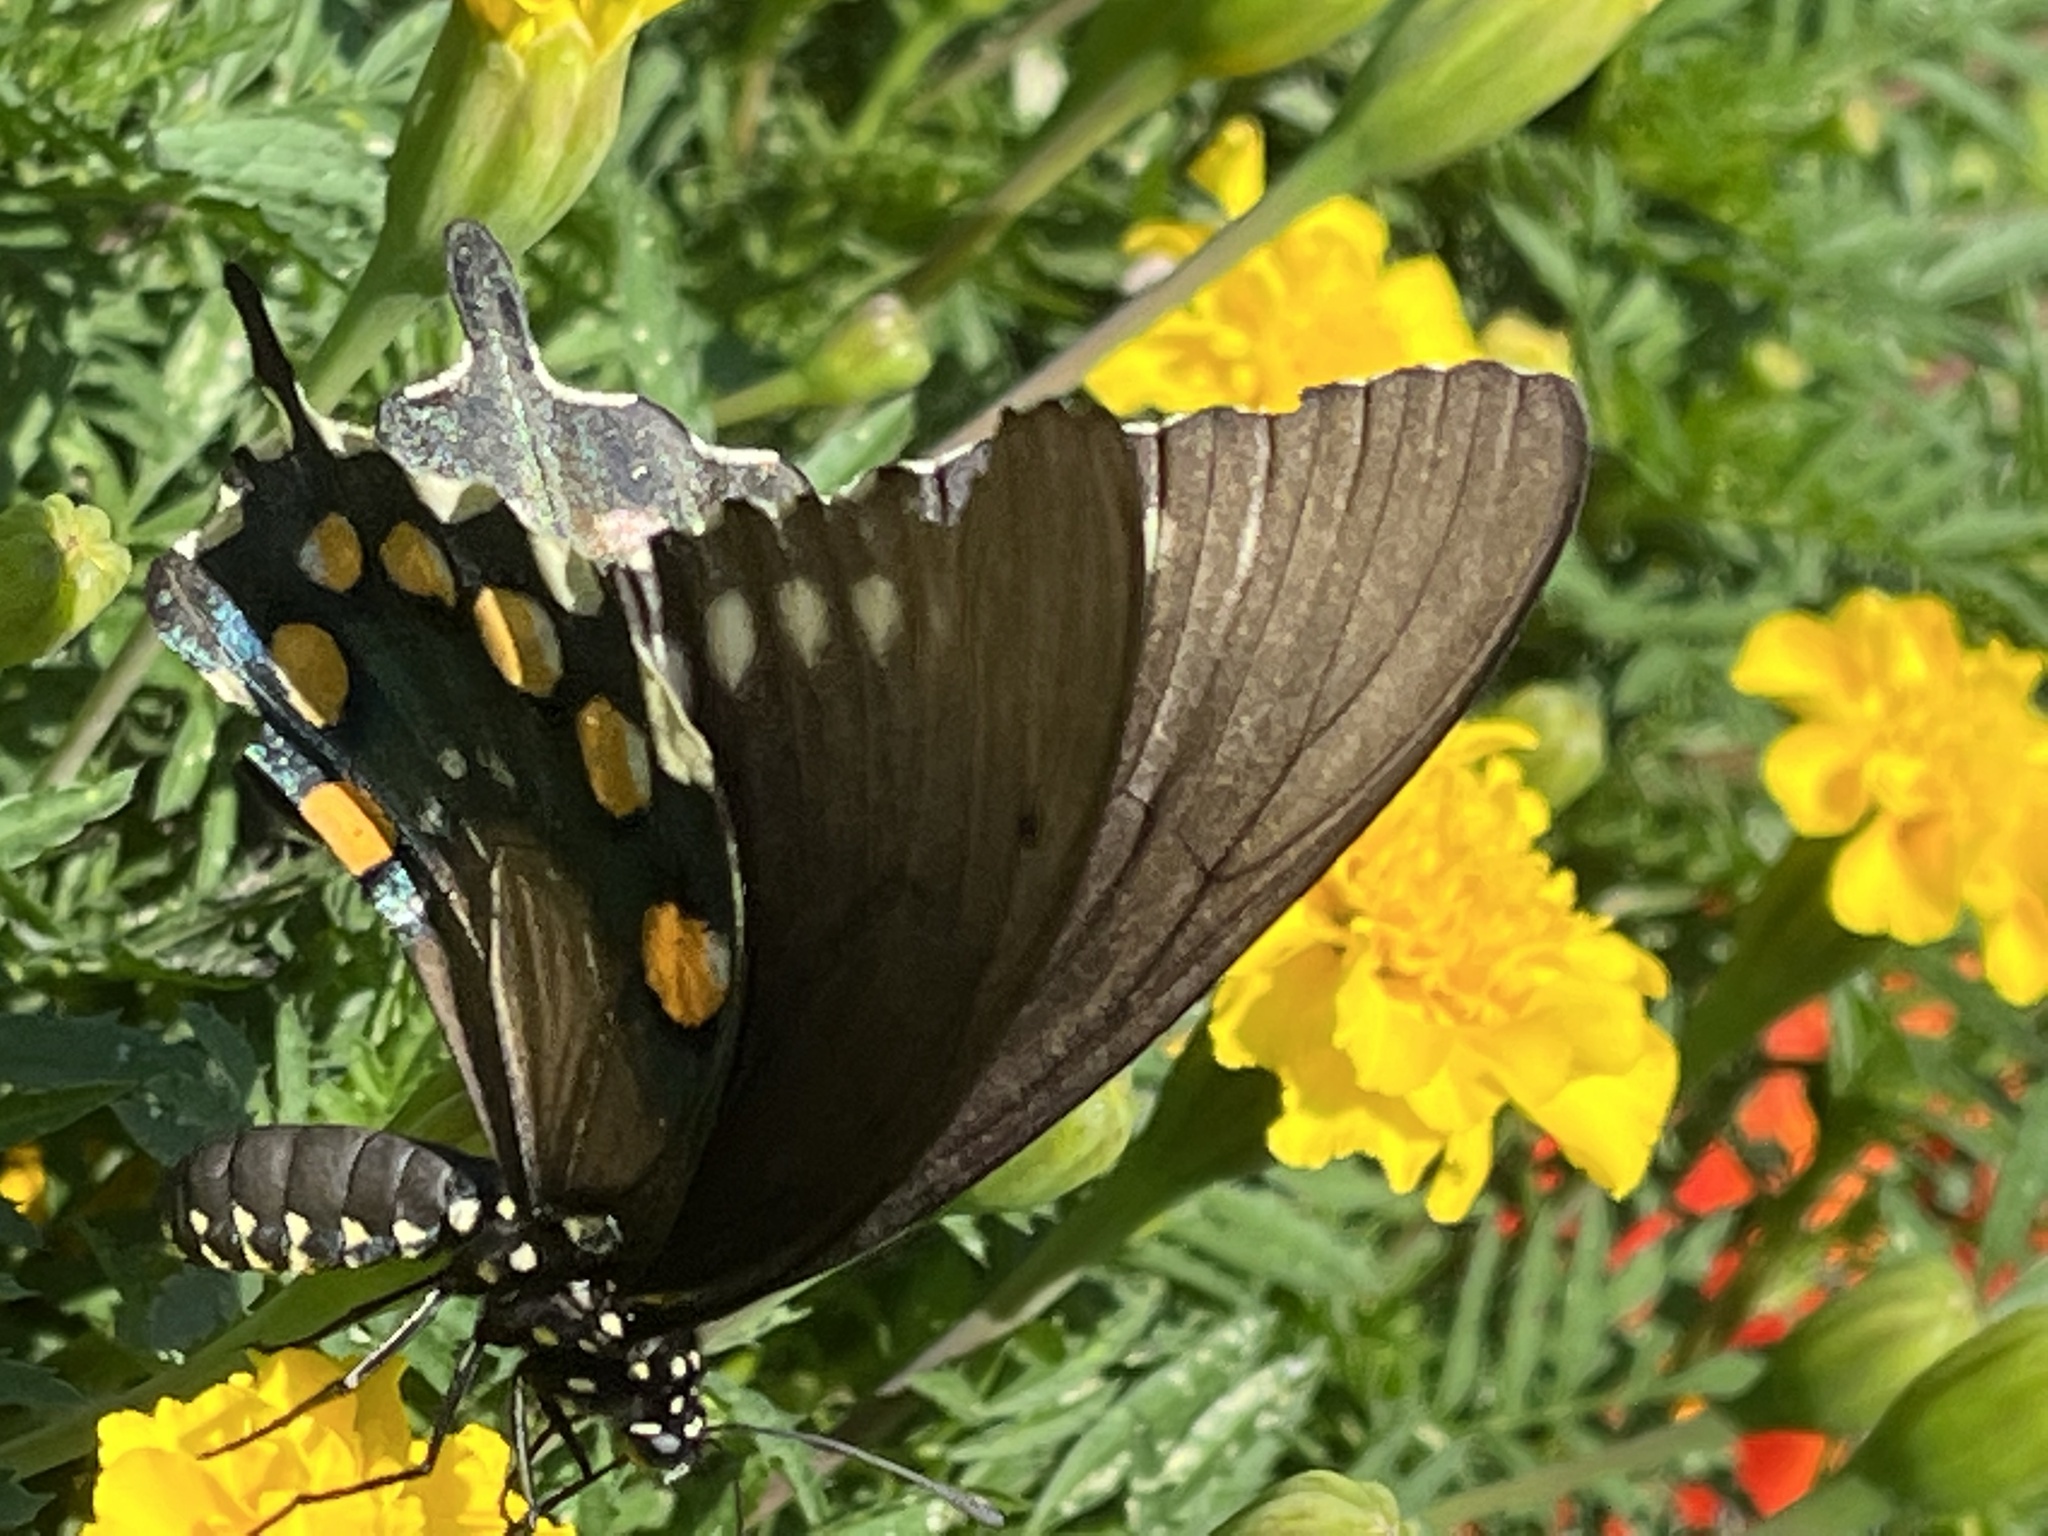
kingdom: Animalia
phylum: Arthropoda
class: Insecta
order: Lepidoptera
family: Papilionidae
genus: Battus
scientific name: Battus philenor
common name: Pipevine swallowtail
